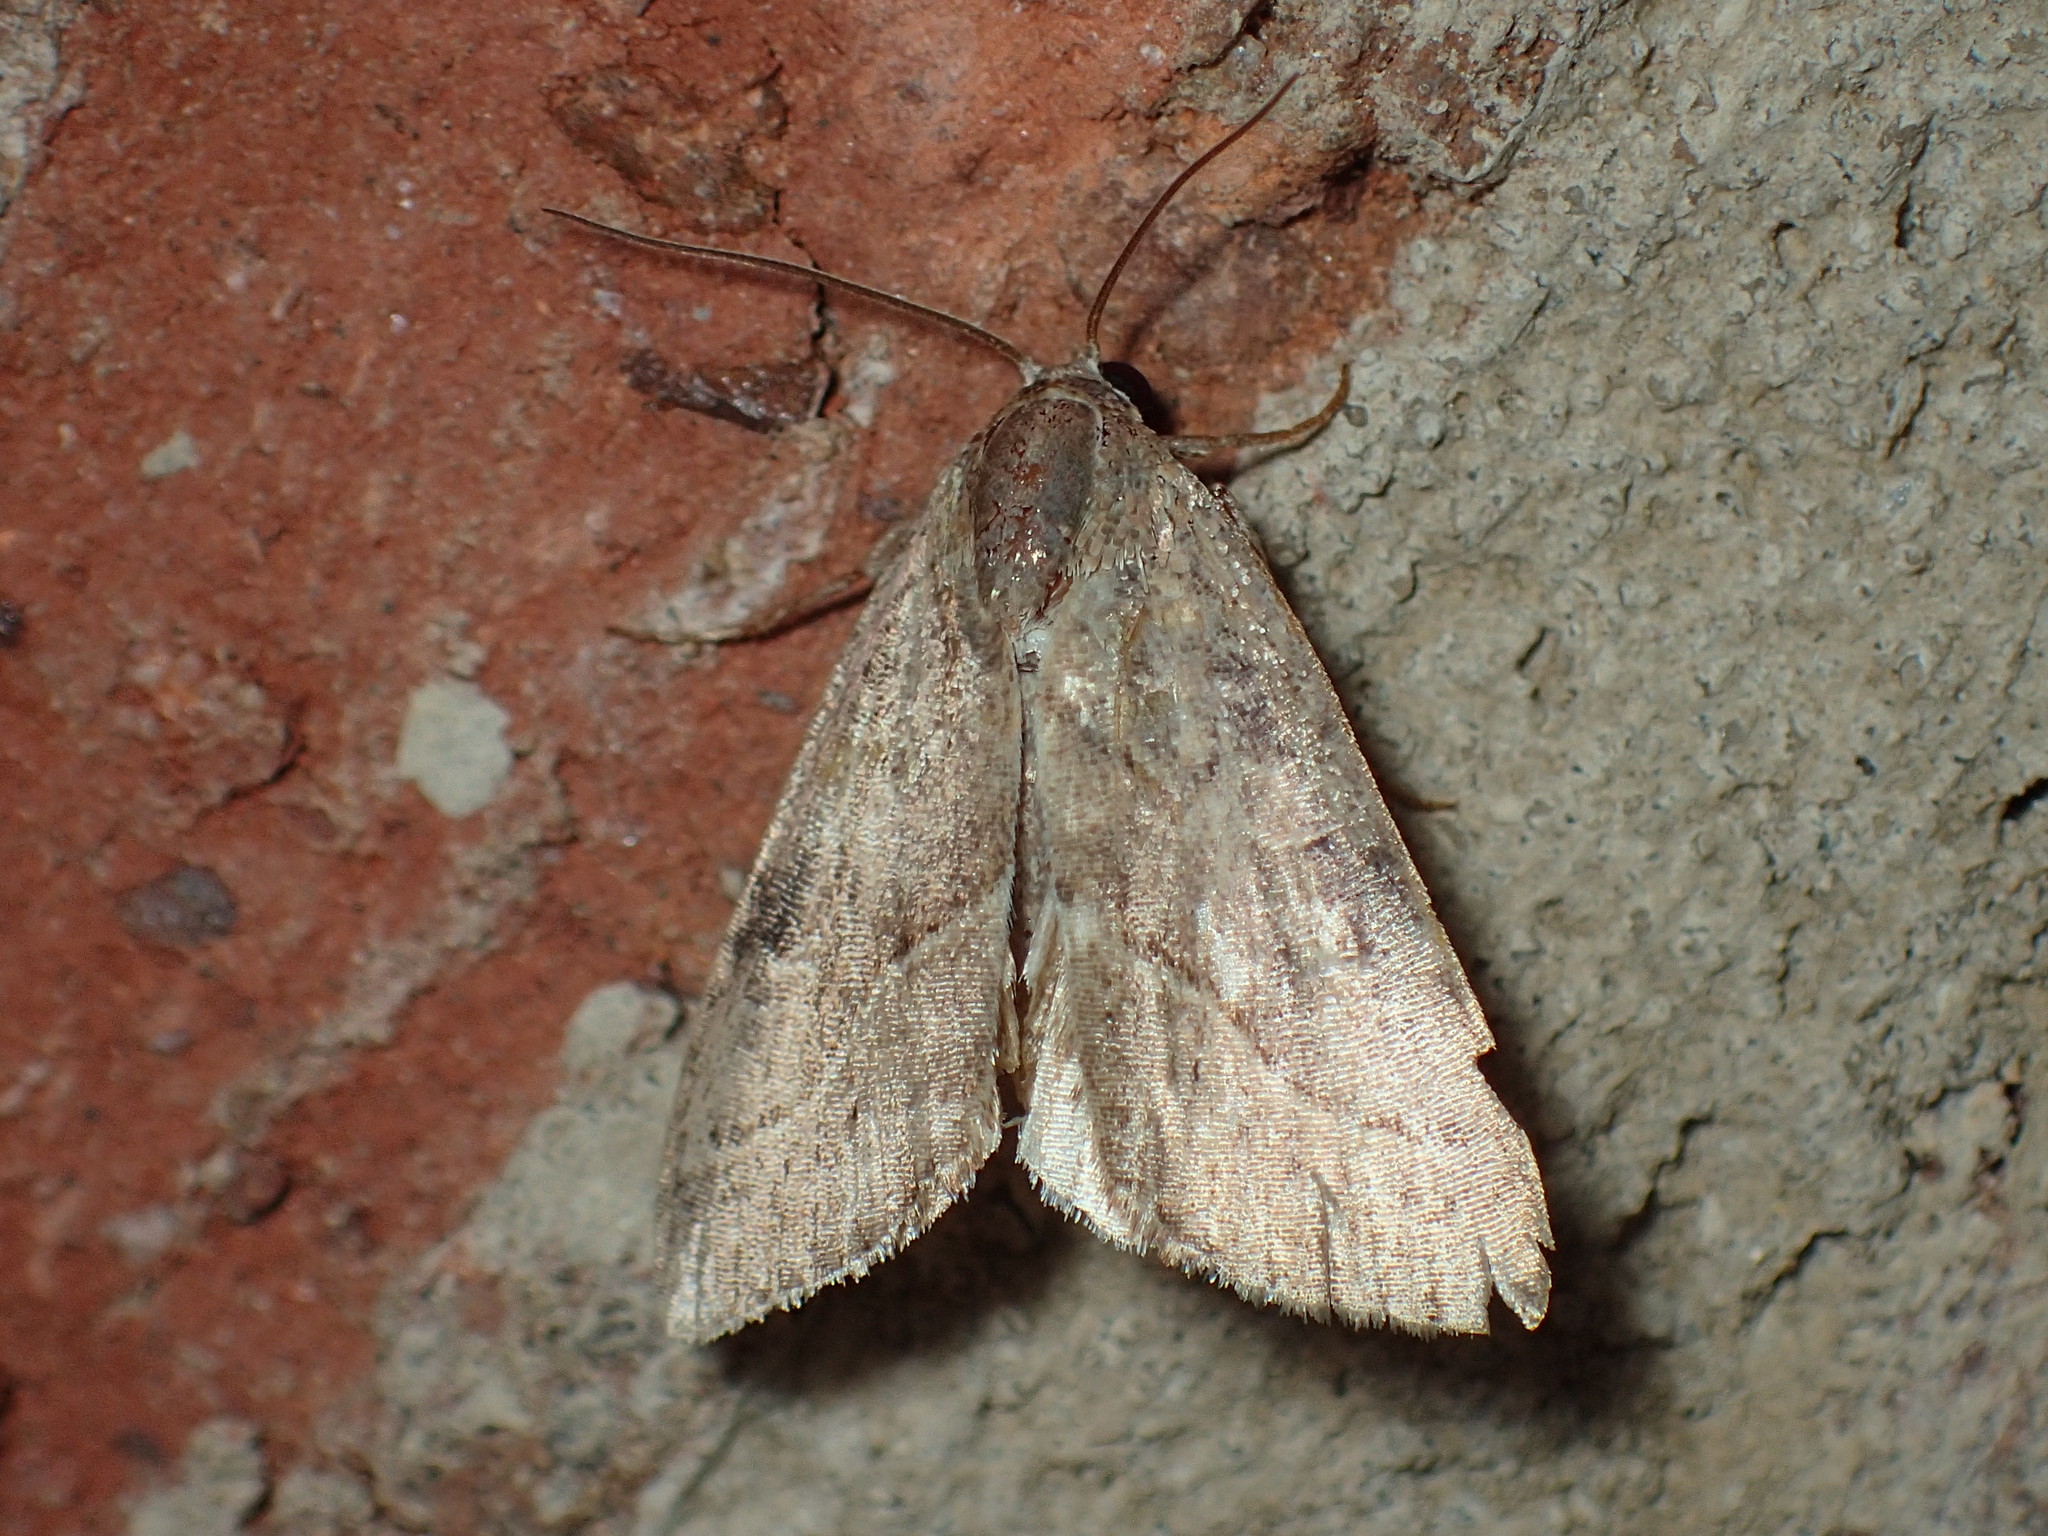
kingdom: Animalia
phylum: Arthropoda
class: Insecta
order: Lepidoptera
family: Noctuidae
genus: Galgula
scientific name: Galgula partita
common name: Wedgeling
